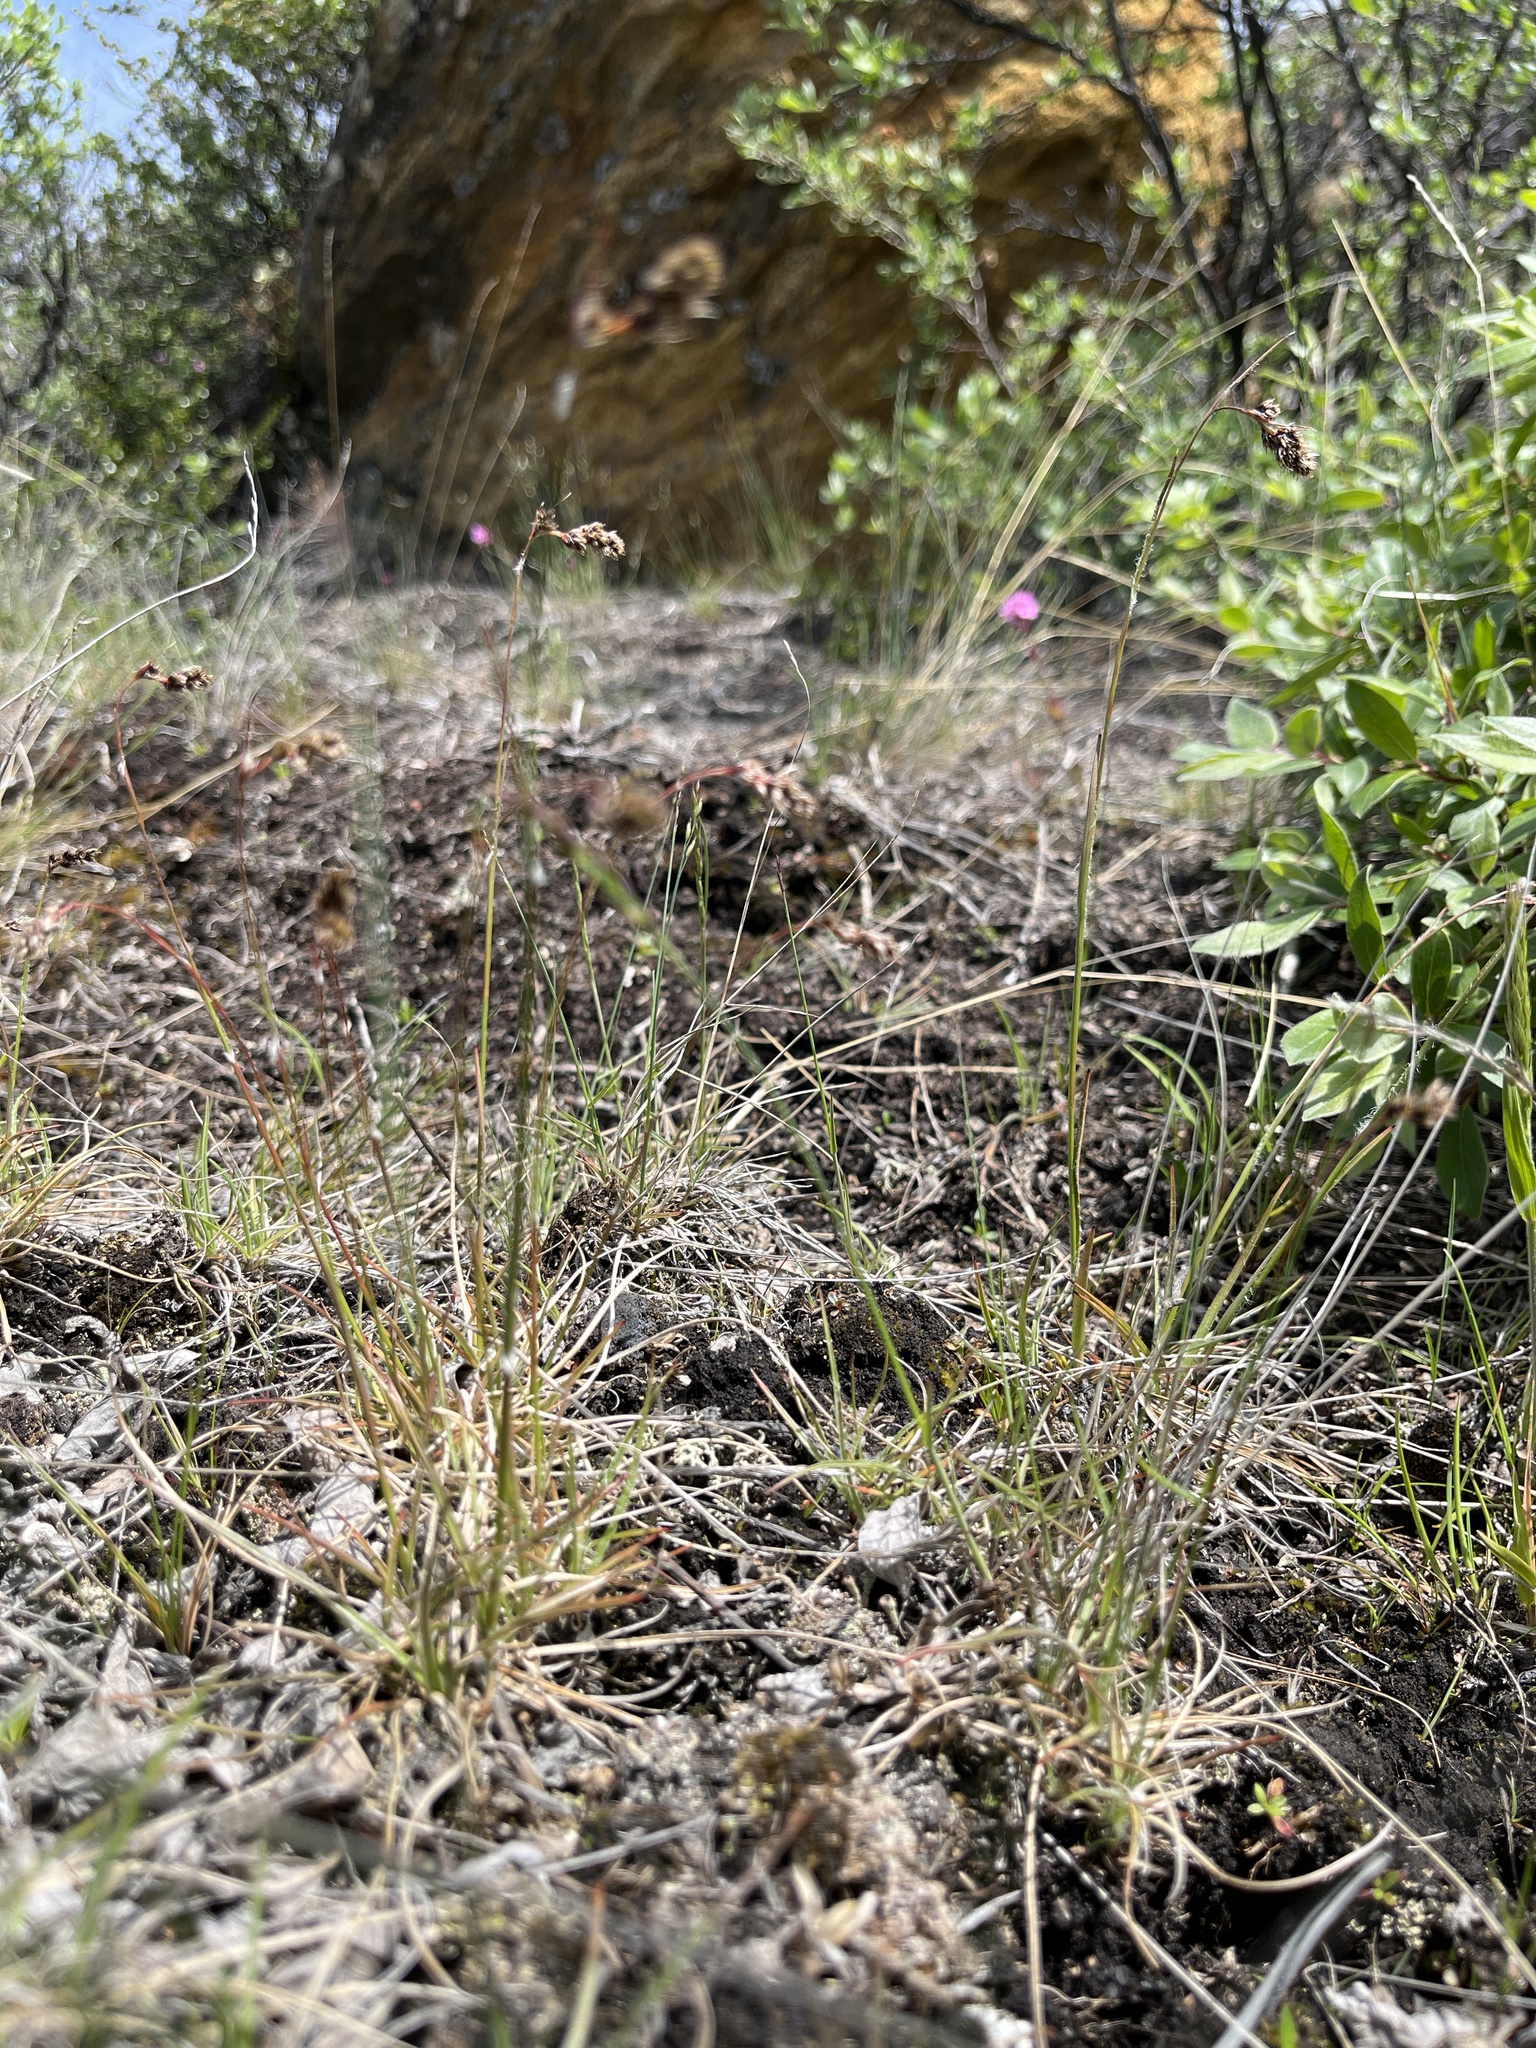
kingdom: Plantae
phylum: Tracheophyta
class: Liliopsida
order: Poales
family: Juncaceae
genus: Luzula
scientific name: Luzula spicata
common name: Spiked wood-rush
